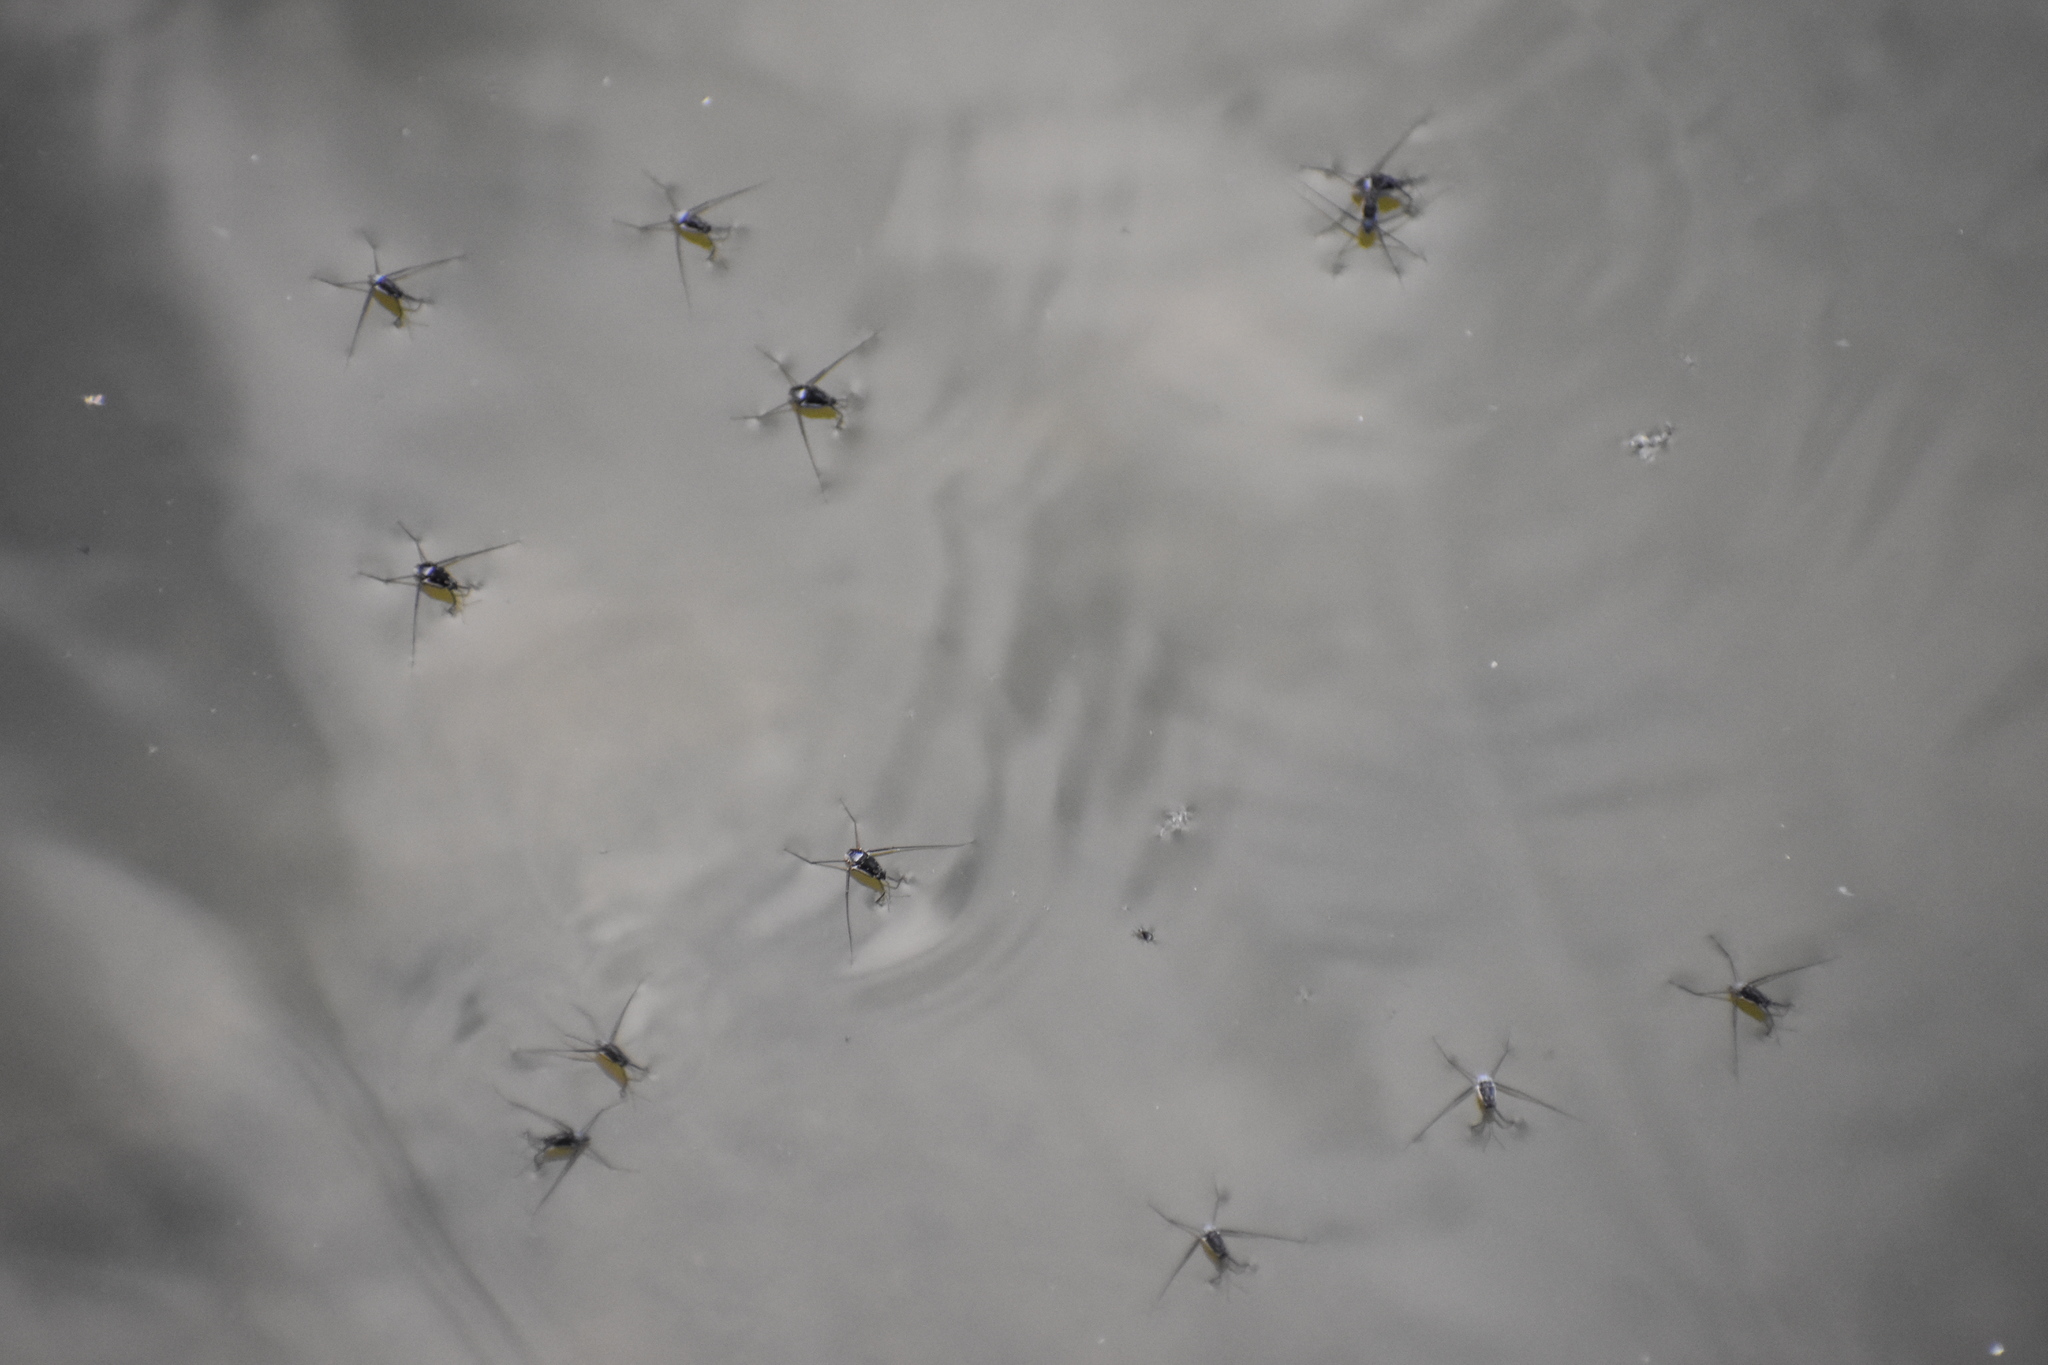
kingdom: Animalia
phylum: Arthropoda
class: Insecta
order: Hemiptera
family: Gerridae
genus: Trepobates
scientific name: Trepobates
